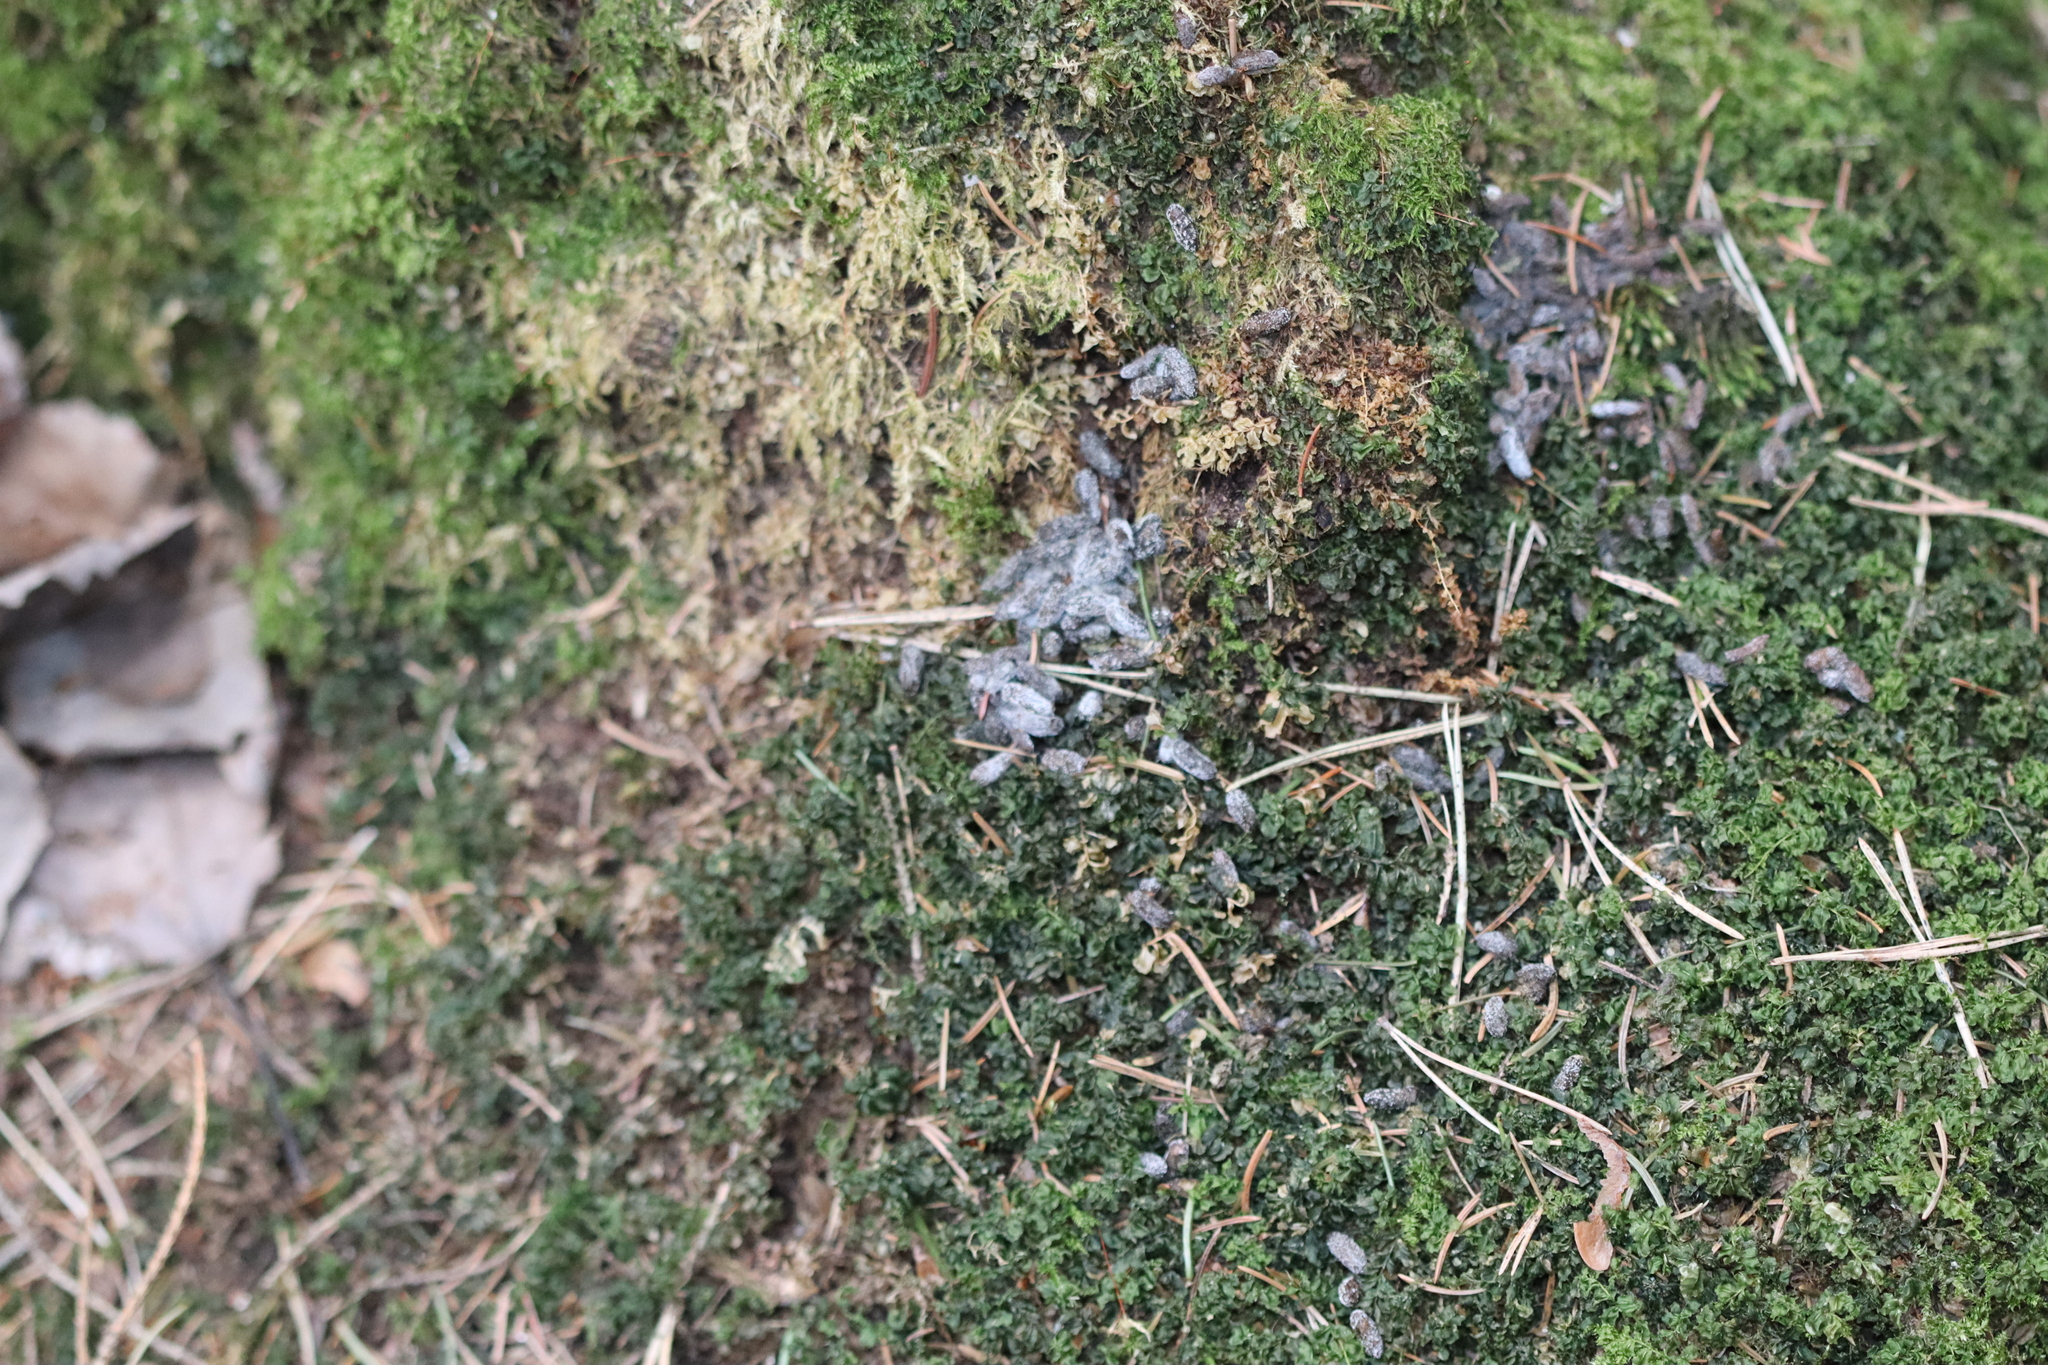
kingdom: Animalia
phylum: Chordata
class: Mammalia
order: Rodentia
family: Sciuridae
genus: Pteromys
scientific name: Pteromys volans
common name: Siberian flying squirrel
